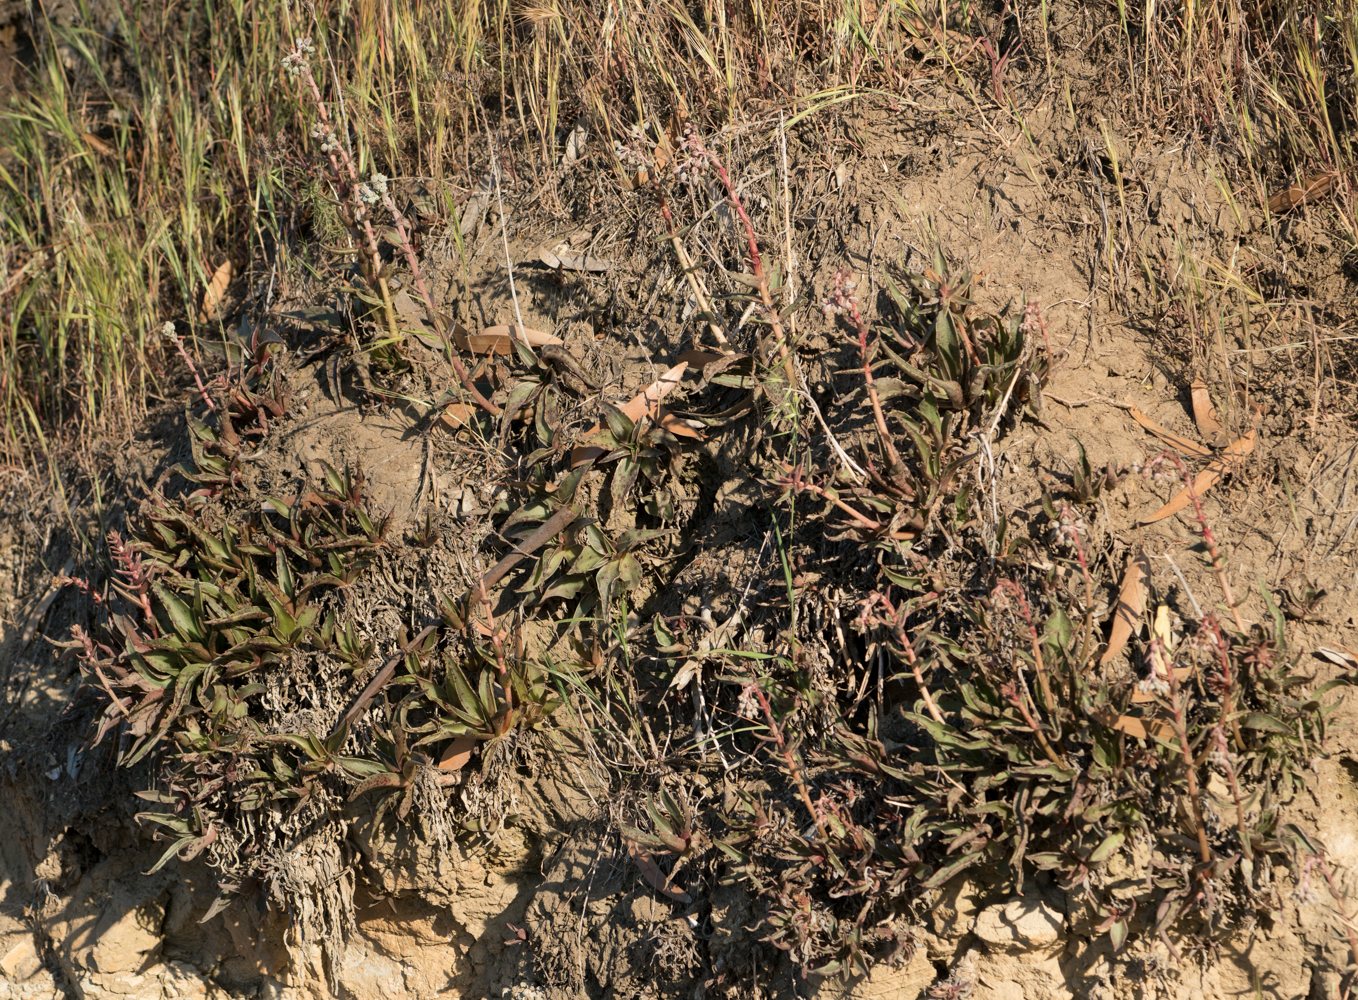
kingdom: Plantae
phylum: Tracheophyta
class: Magnoliopsida
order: Saxifragales
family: Crassulaceae
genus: Dudleya
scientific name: Dudleya lanceolata
